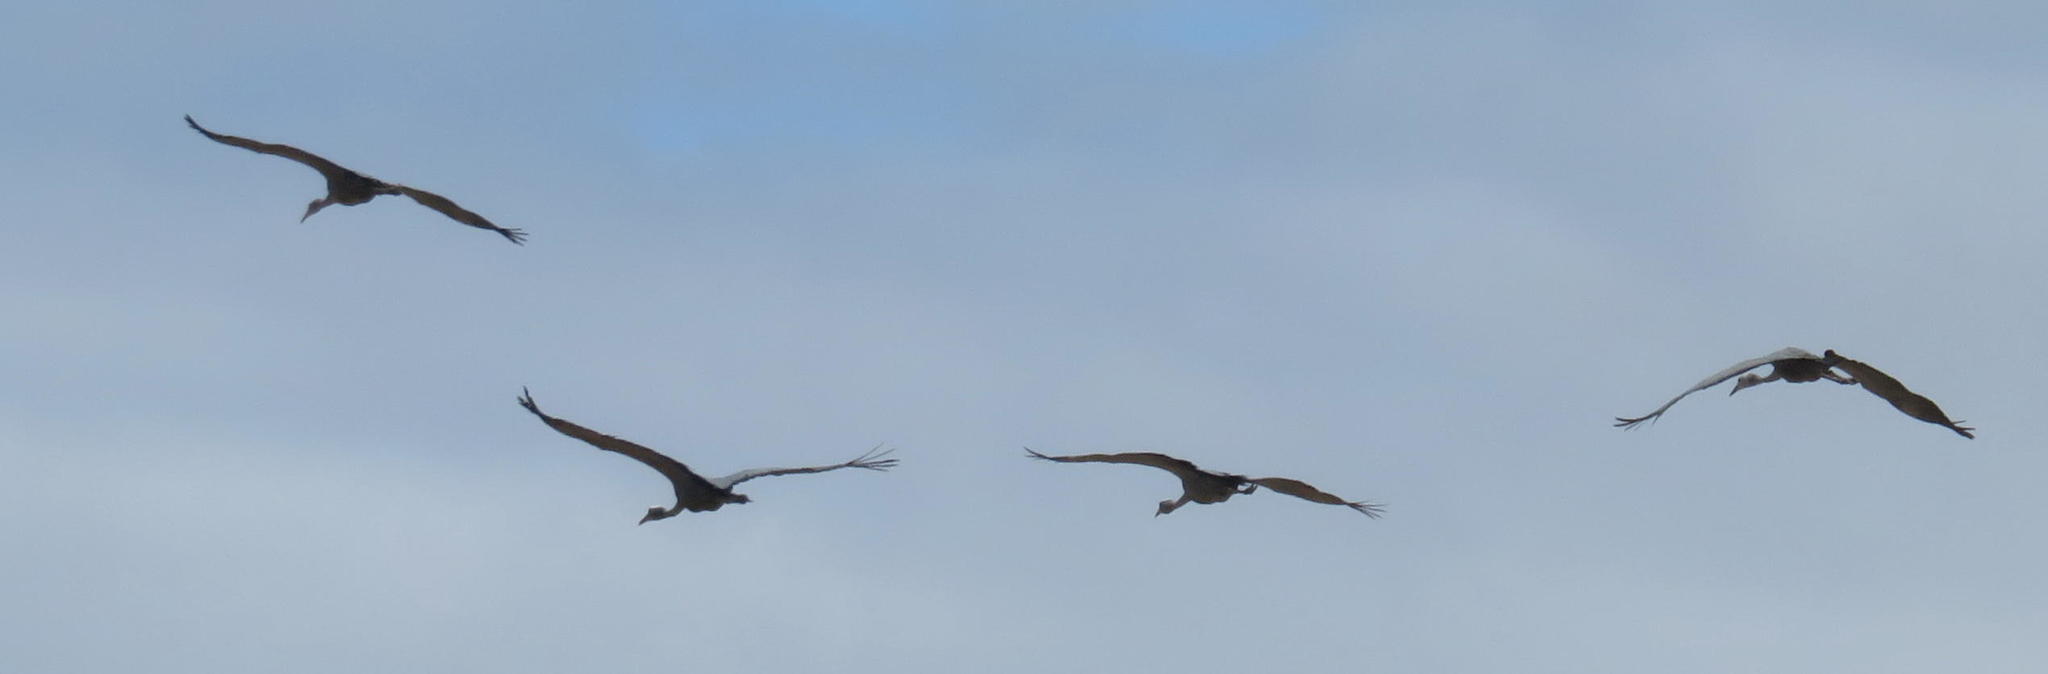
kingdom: Animalia
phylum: Chordata
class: Aves
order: Gruiformes
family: Gruidae
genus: Anthropoides
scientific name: Anthropoides paradiseus
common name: Blue crane
